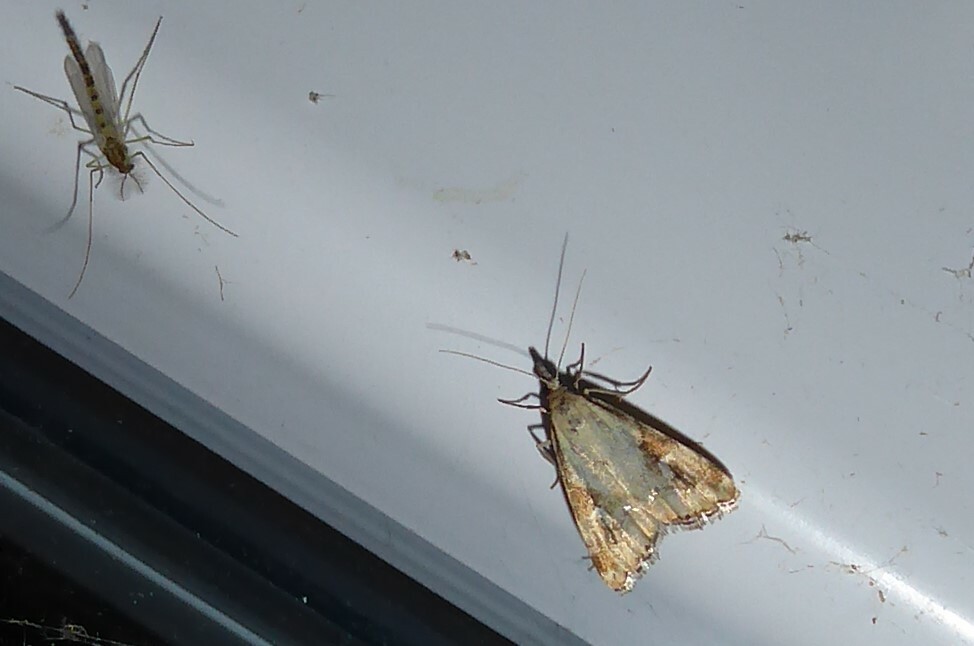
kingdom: Animalia
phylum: Arthropoda
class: Insecta
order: Lepidoptera
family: Crambidae
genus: Glaucocharis
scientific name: Glaucocharis lepidella
